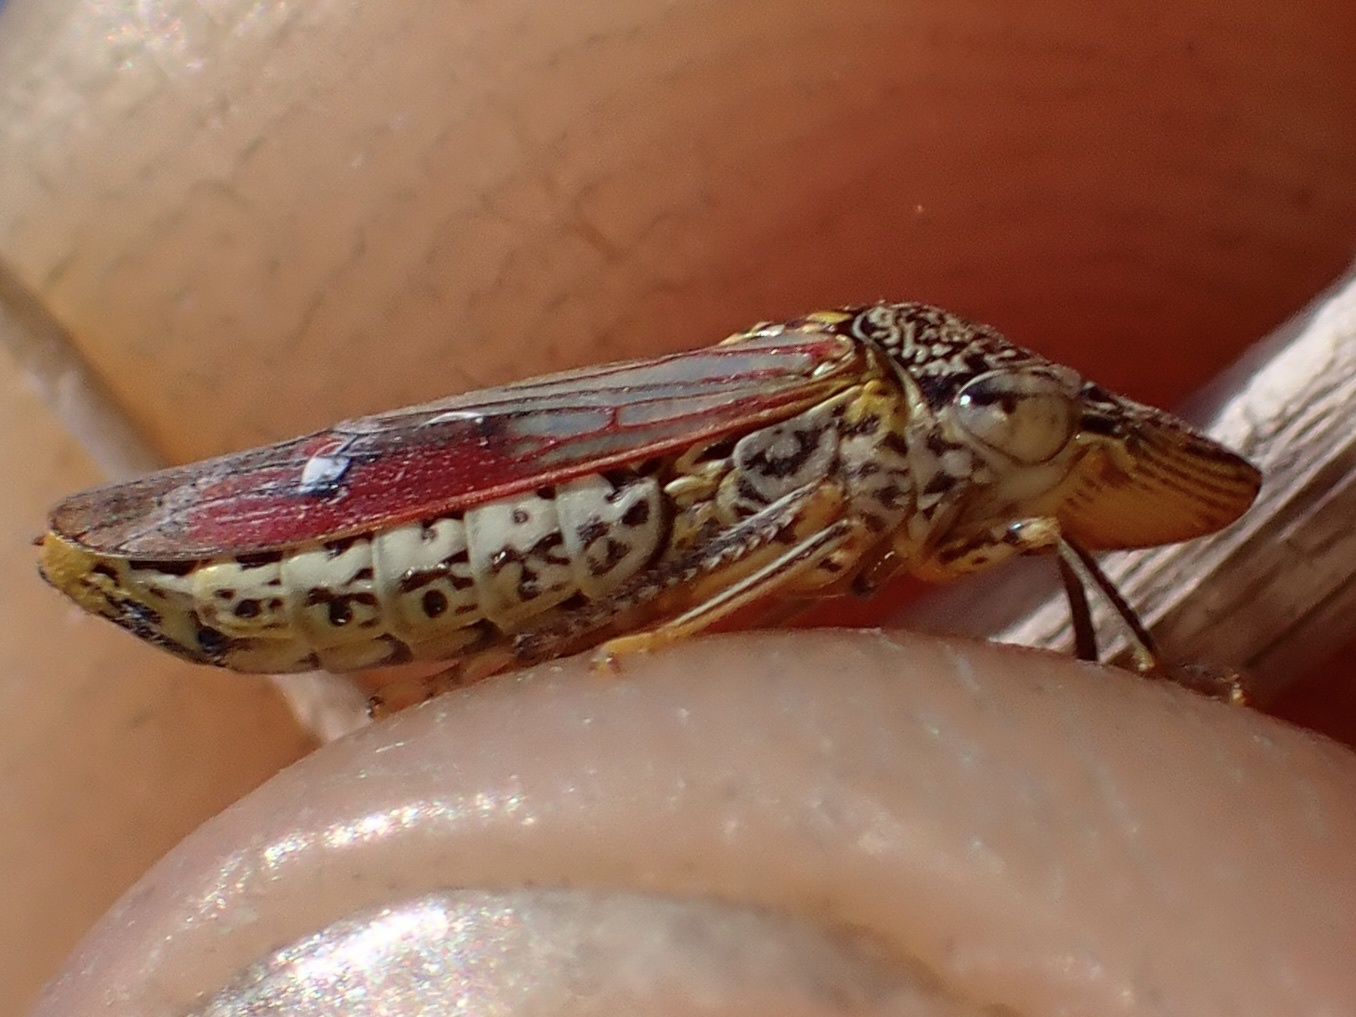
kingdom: Animalia
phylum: Arthropoda
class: Insecta
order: Hemiptera
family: Cicadellidae
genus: Homalodisca
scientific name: Homalodisca liturata
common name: Lacertate sharpshooter
